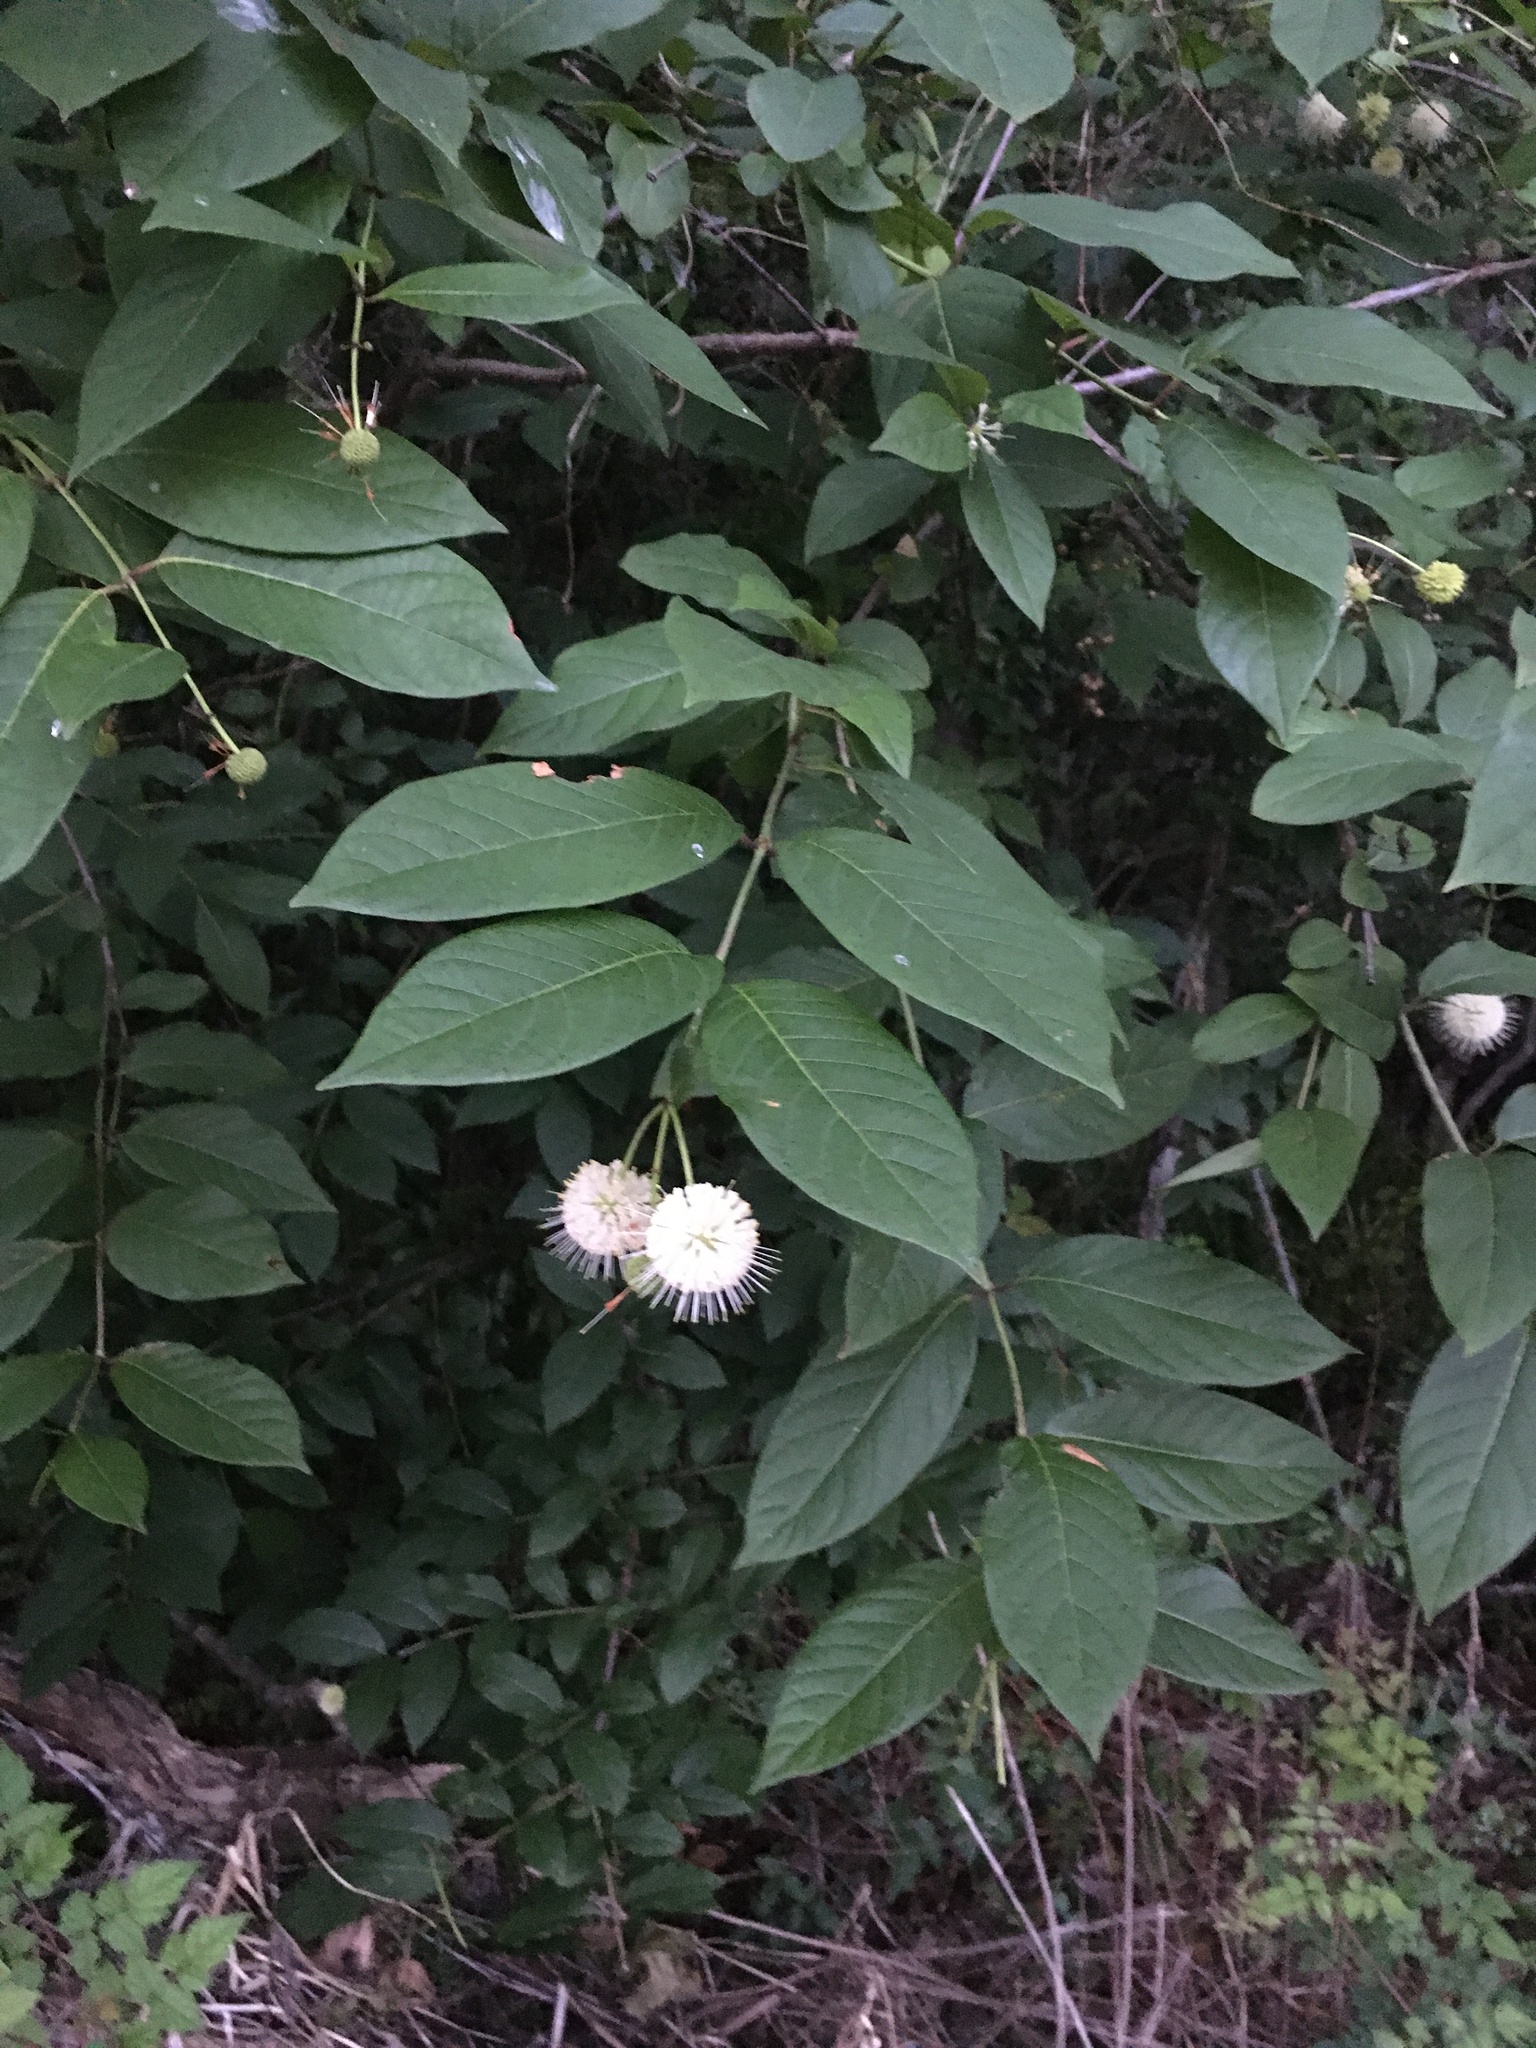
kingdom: Plantae
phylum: Tracheophyta
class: Magnoliopsida
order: Gentianales
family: Rubiaceae
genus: Cephalanthus
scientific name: Cephalanthus occidentalis
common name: Button-willow
